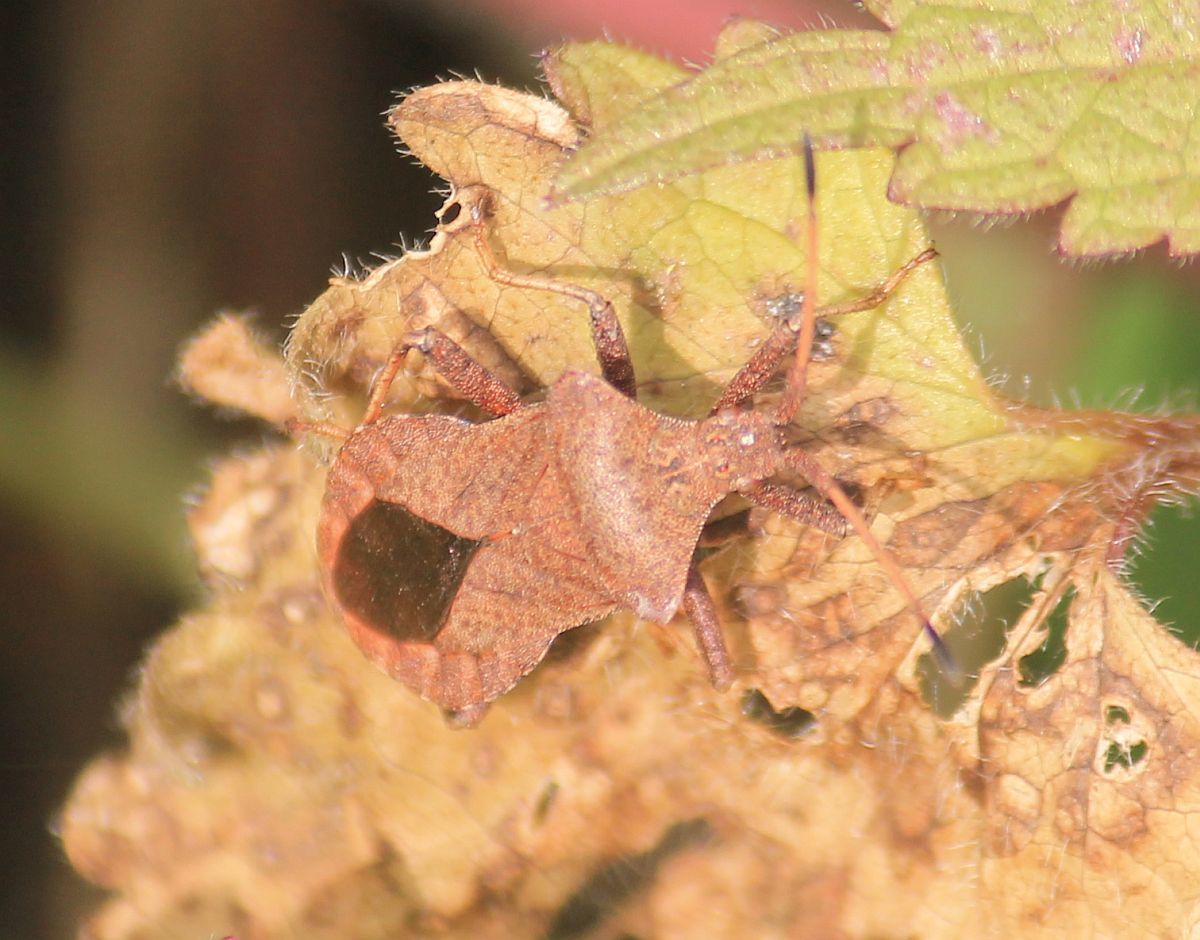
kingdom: Animalia
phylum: Arthropoda
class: Insecta
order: Hemiptera
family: Coreidae
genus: Coreus
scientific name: Coreus marginatus
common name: Dock bug
